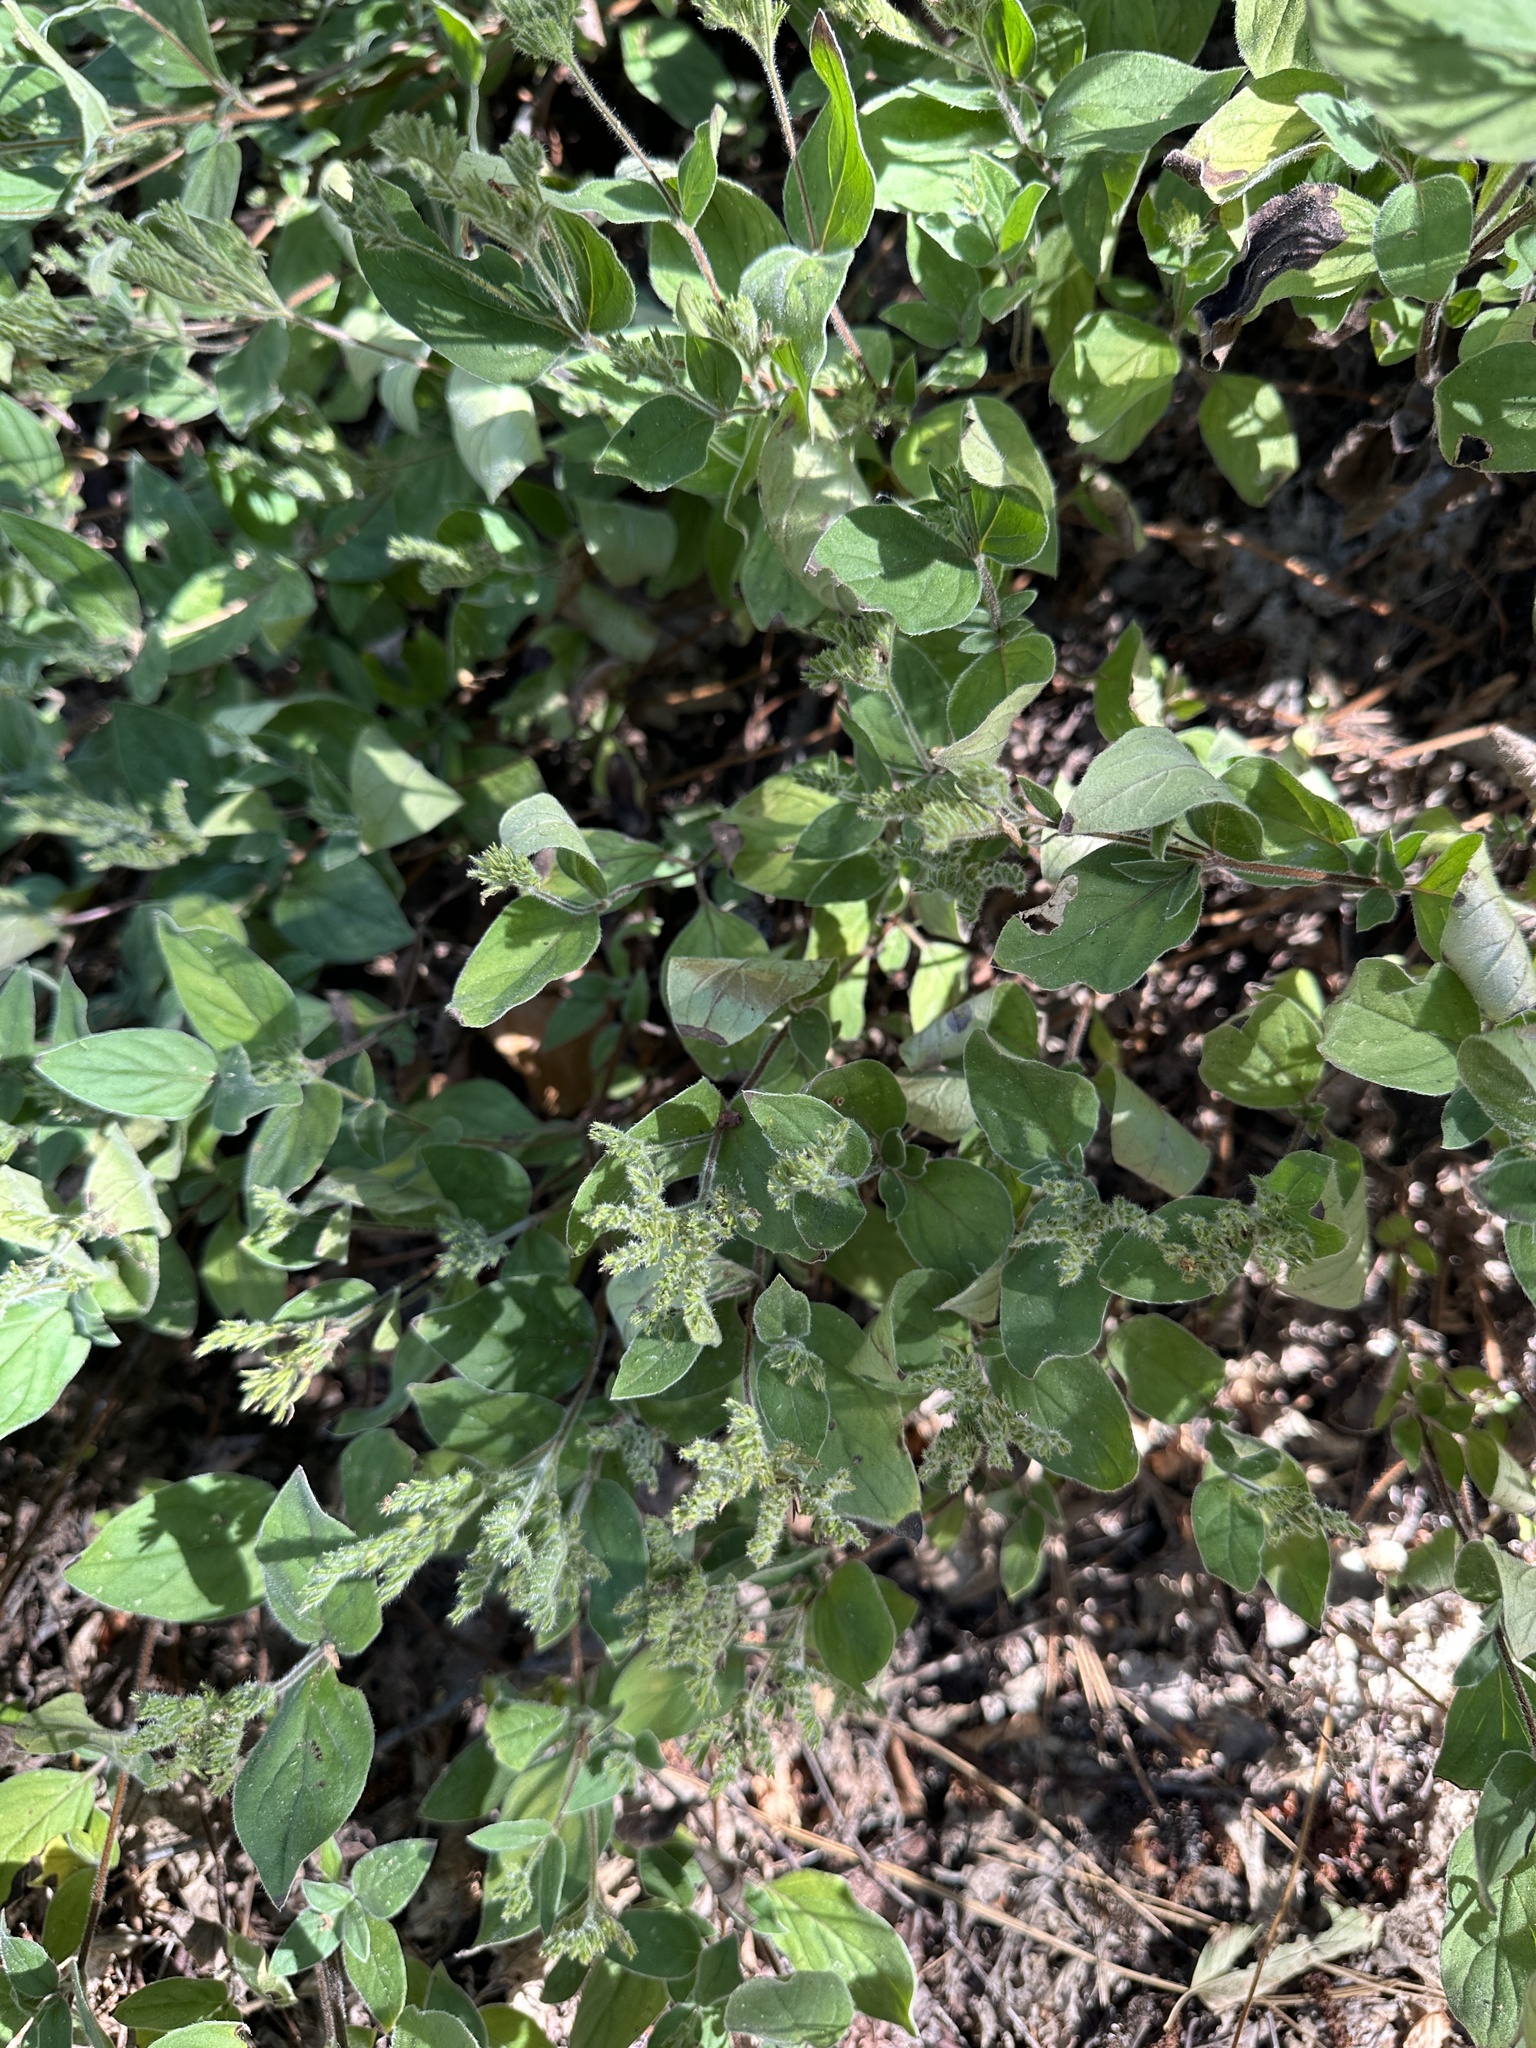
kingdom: Plantae
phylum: Tracheophyta
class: Magnoliopsida
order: Boraginales
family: Hydrophyllaceae
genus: Draperia
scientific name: Draperia systyla
